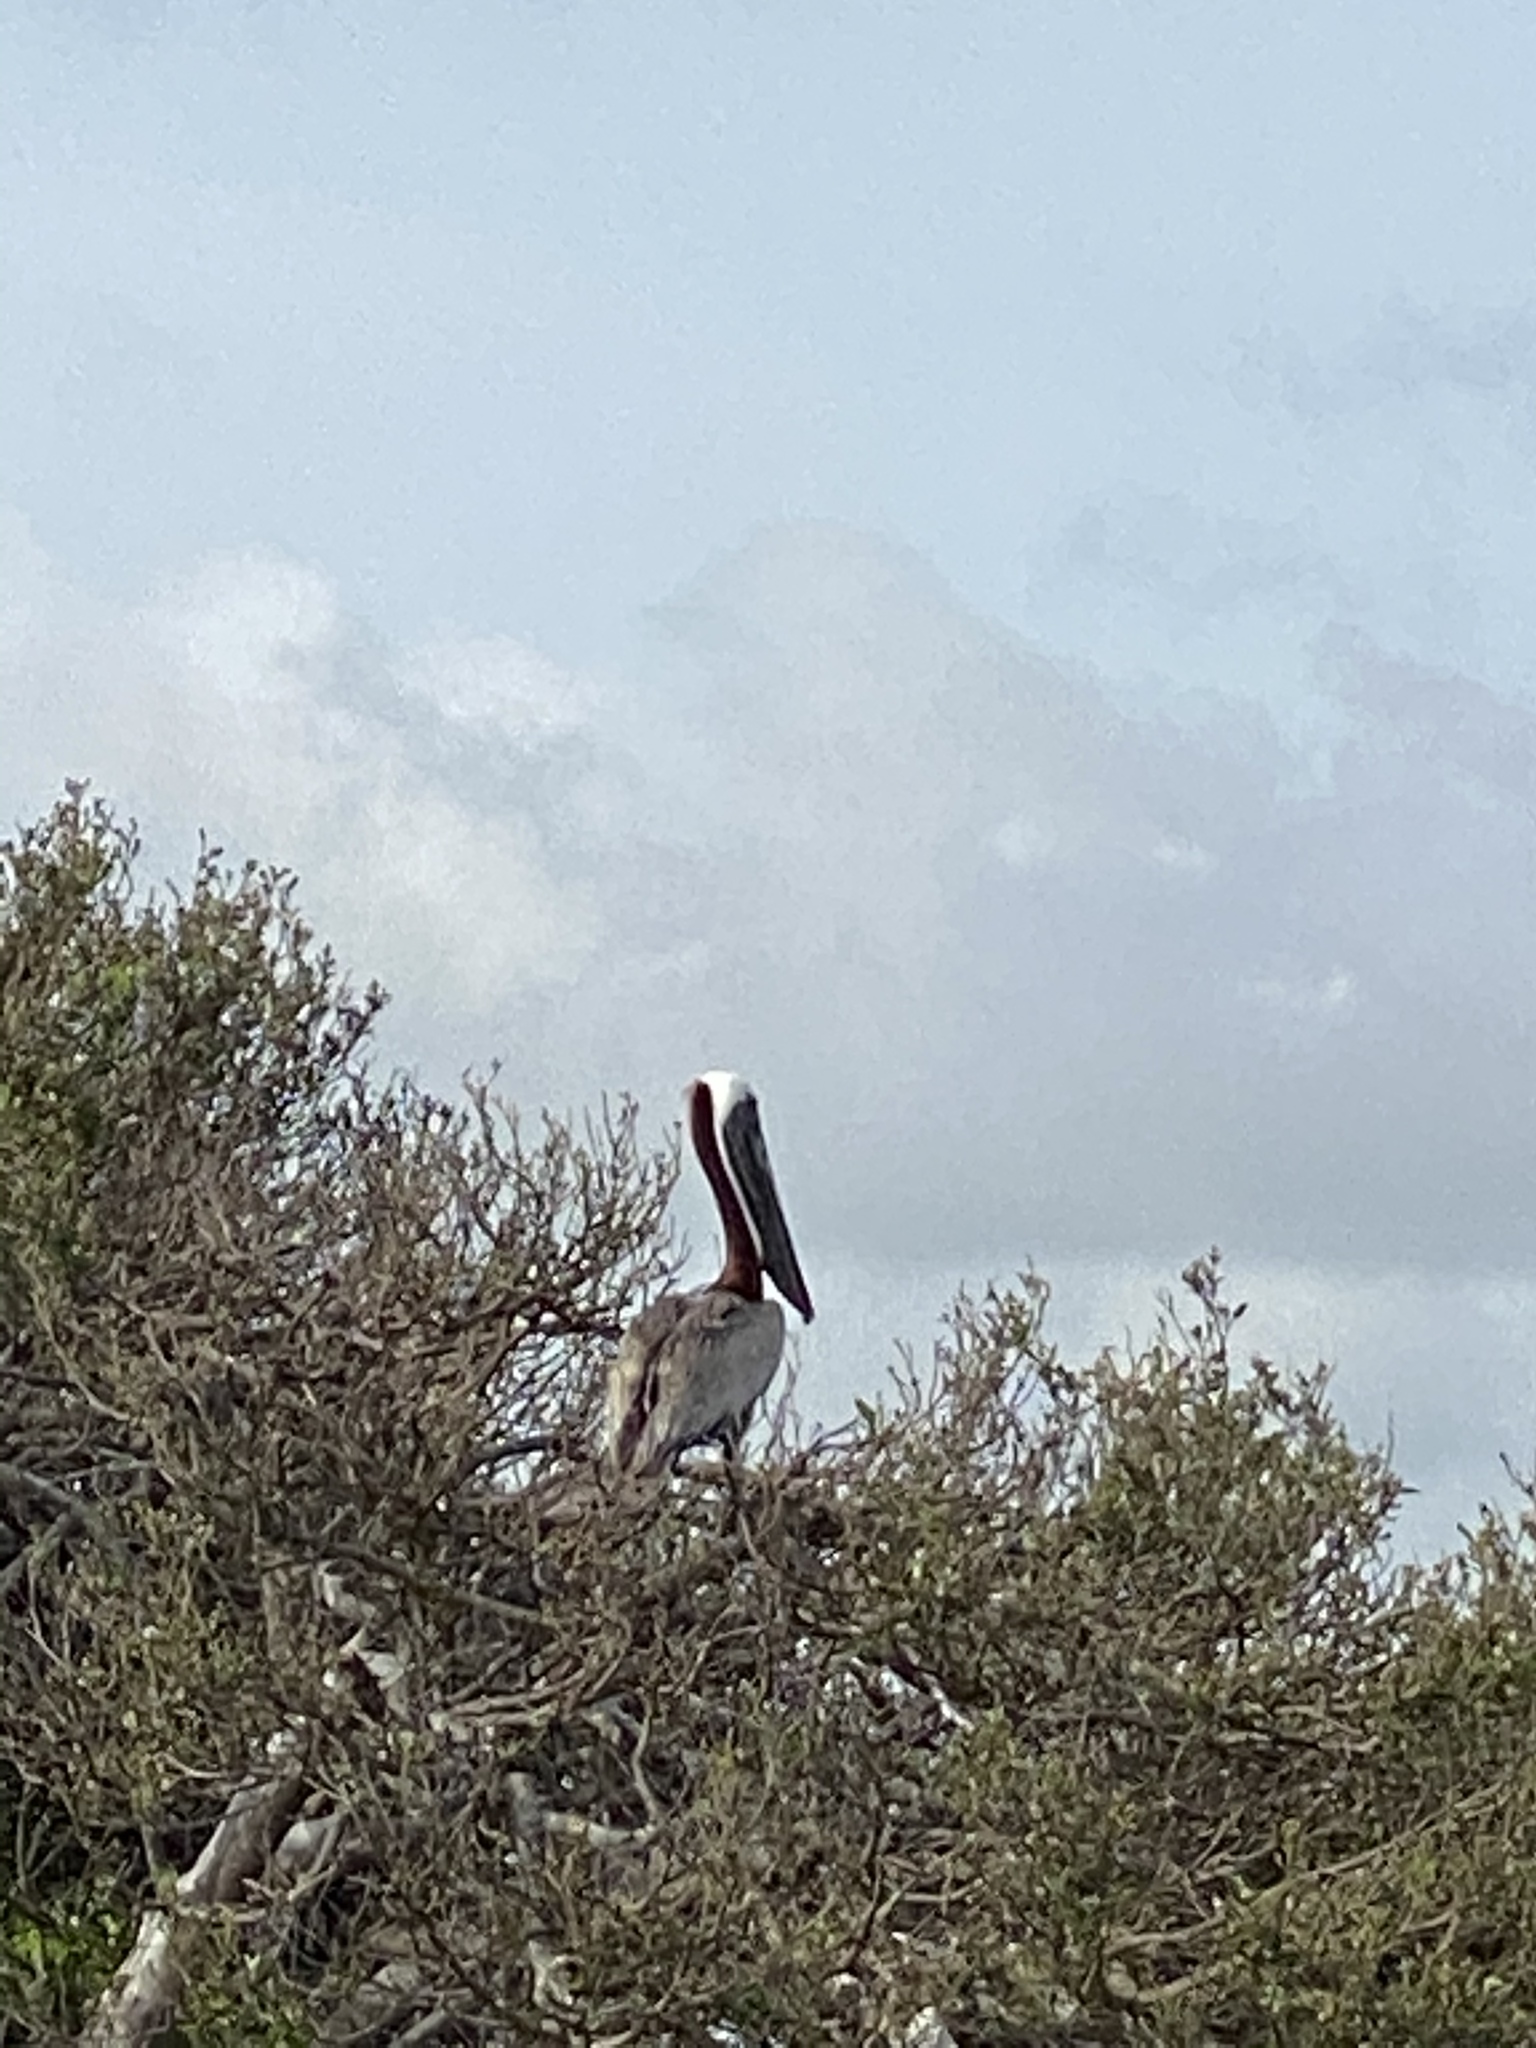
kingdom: Animalia
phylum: Chordata
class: Aves
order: Pelecaniformes
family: Pelecanidae
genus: Pelecanus
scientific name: Pelecanus occidentalis
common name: Brown pelican
